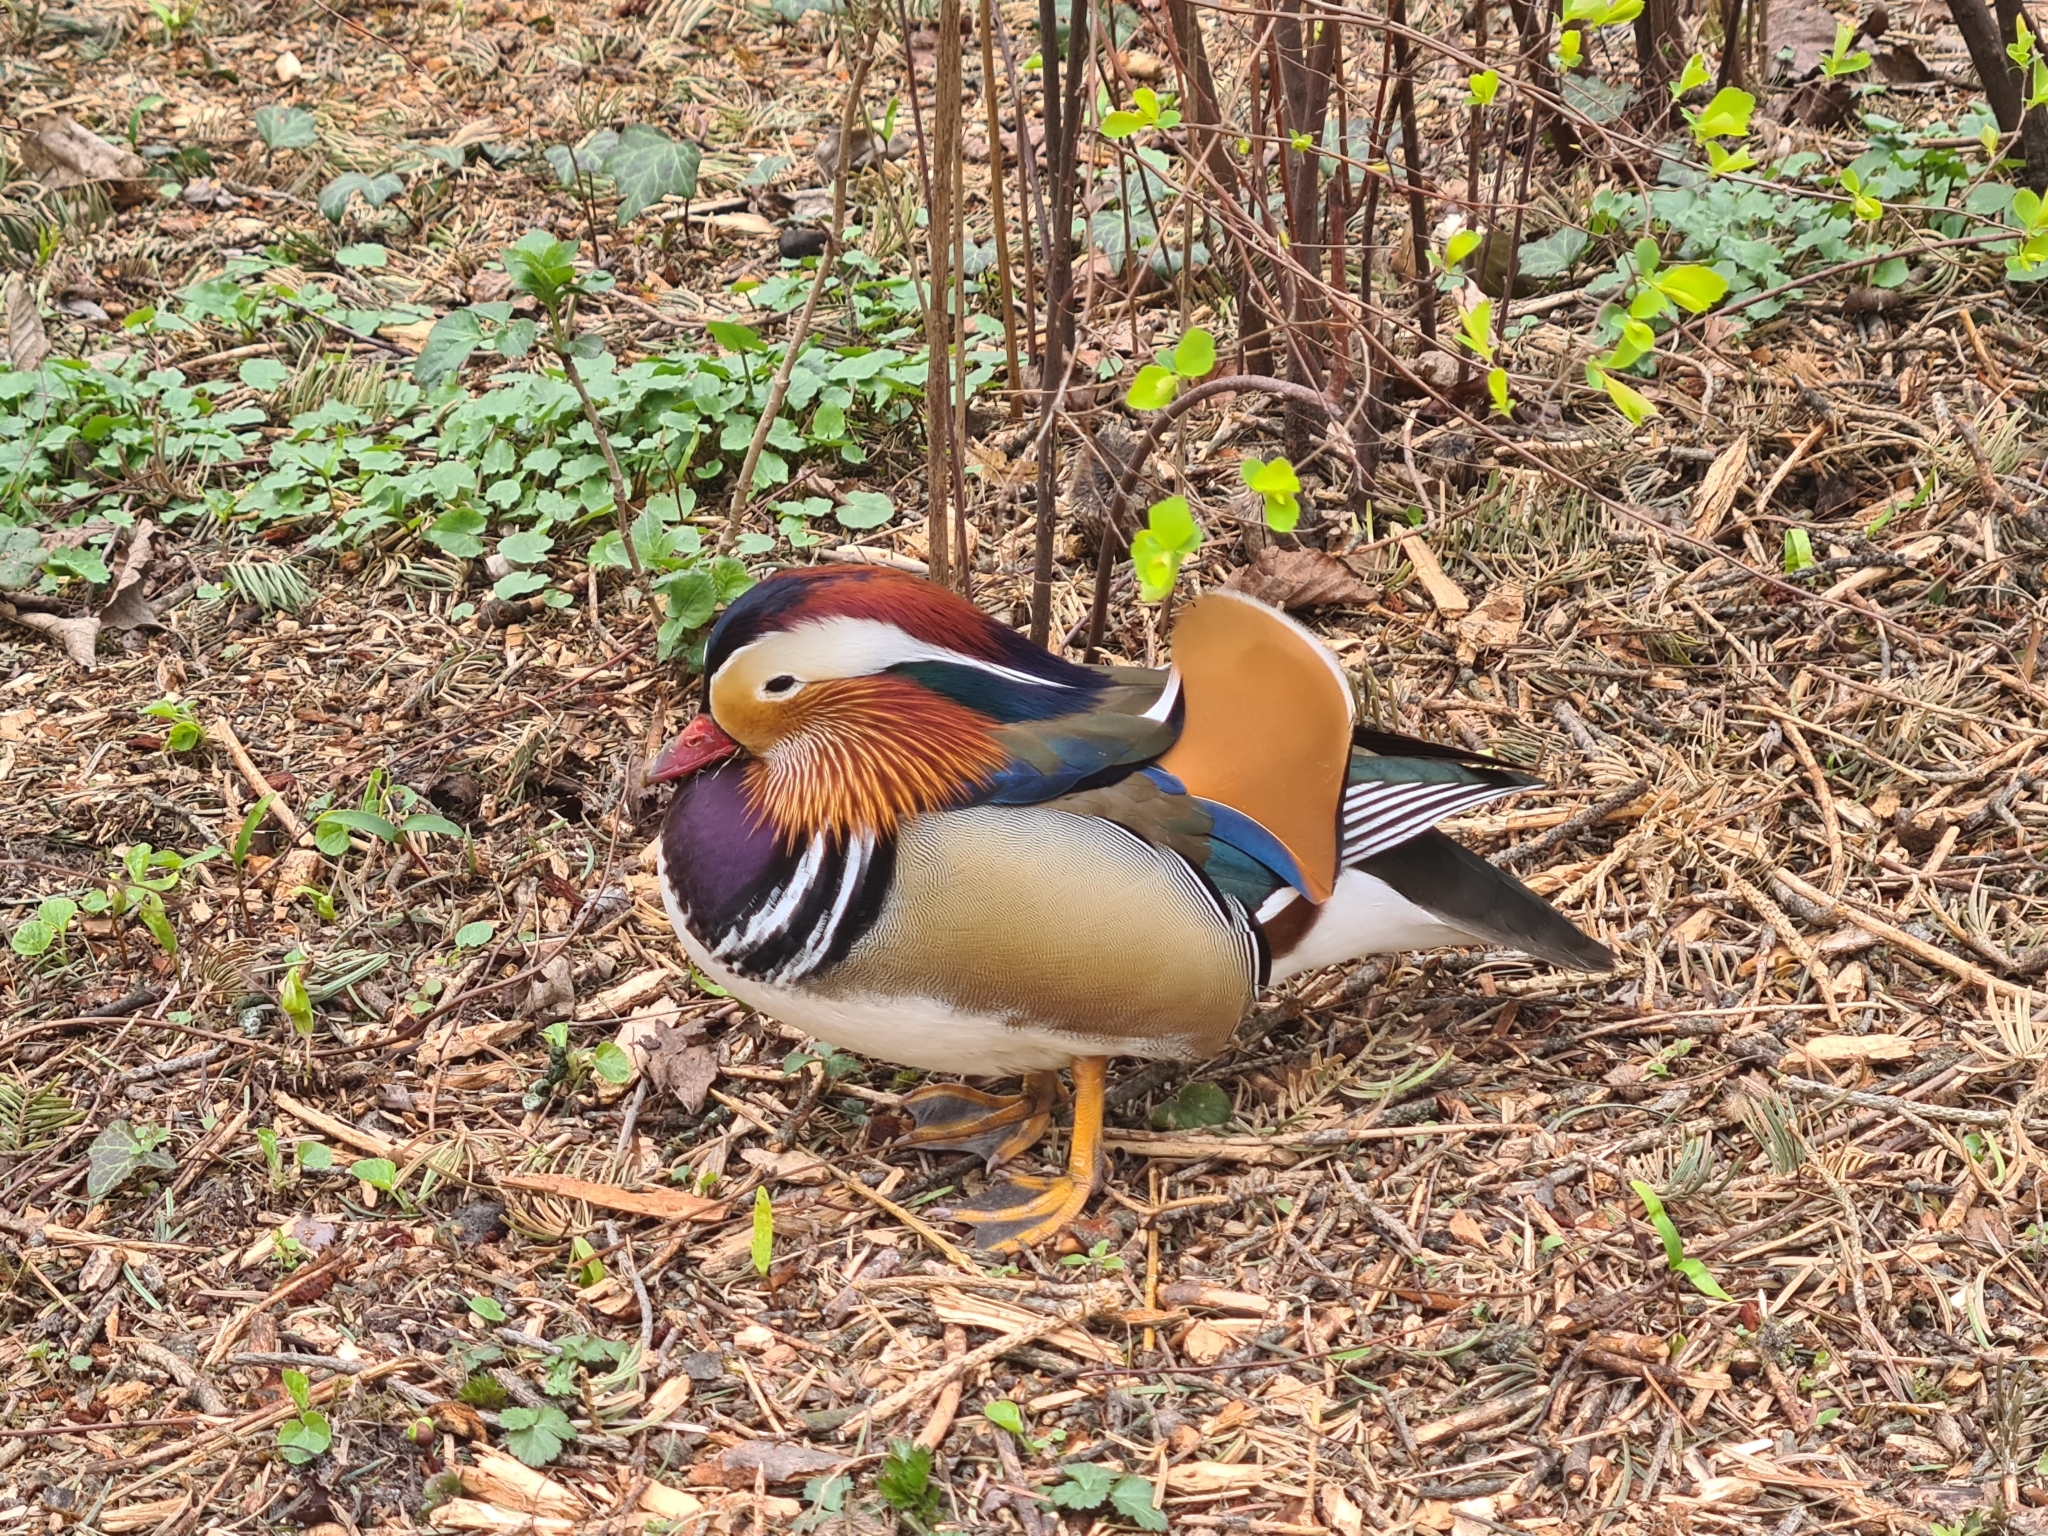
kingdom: Animalia
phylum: Chordata
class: Aves
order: Anseriformes
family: Anatidae
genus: Aix
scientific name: Aix galericulata
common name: Mandarin duck
